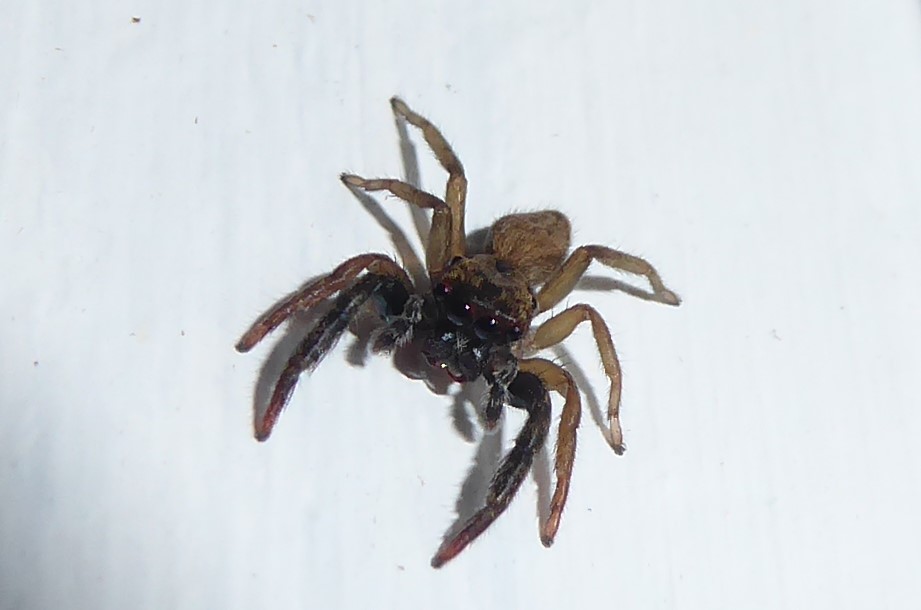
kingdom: Animalia
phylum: Arthropoda
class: Arachnida
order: Araneae
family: Salticidae
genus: Trite
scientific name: Trite auricoma
